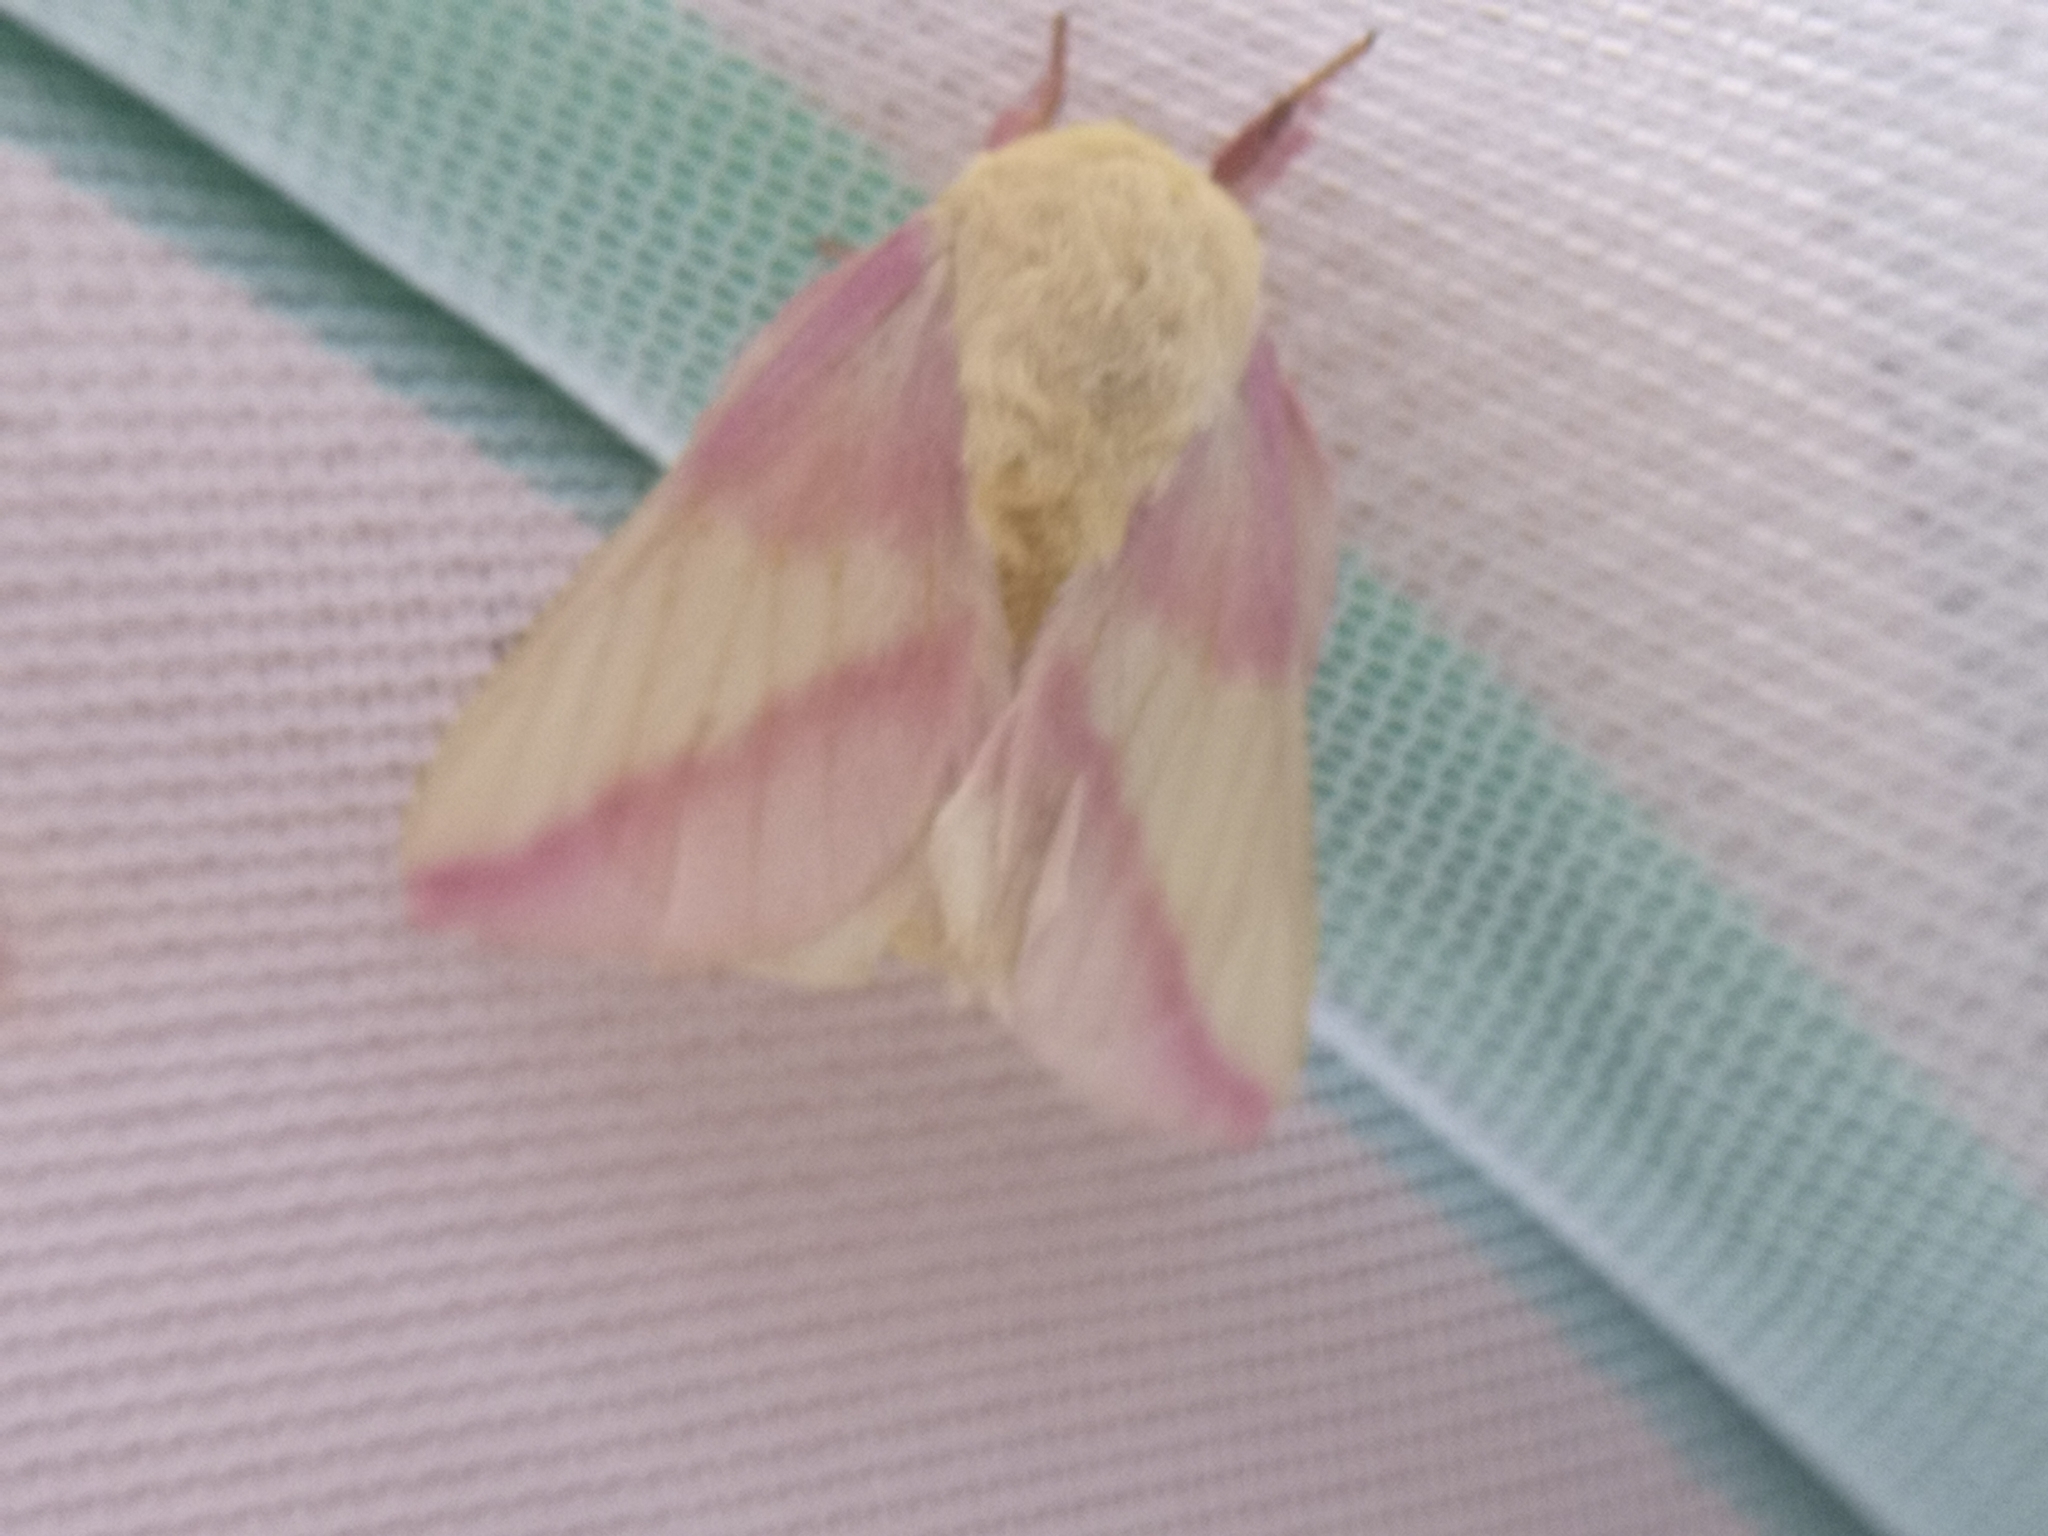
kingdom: Animalia
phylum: Arthropoda
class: Insecta
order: Lepidoptera
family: Saturniidae
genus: Dryocampa
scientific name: Dryocampa rubicunda
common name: Rosy maple moth
